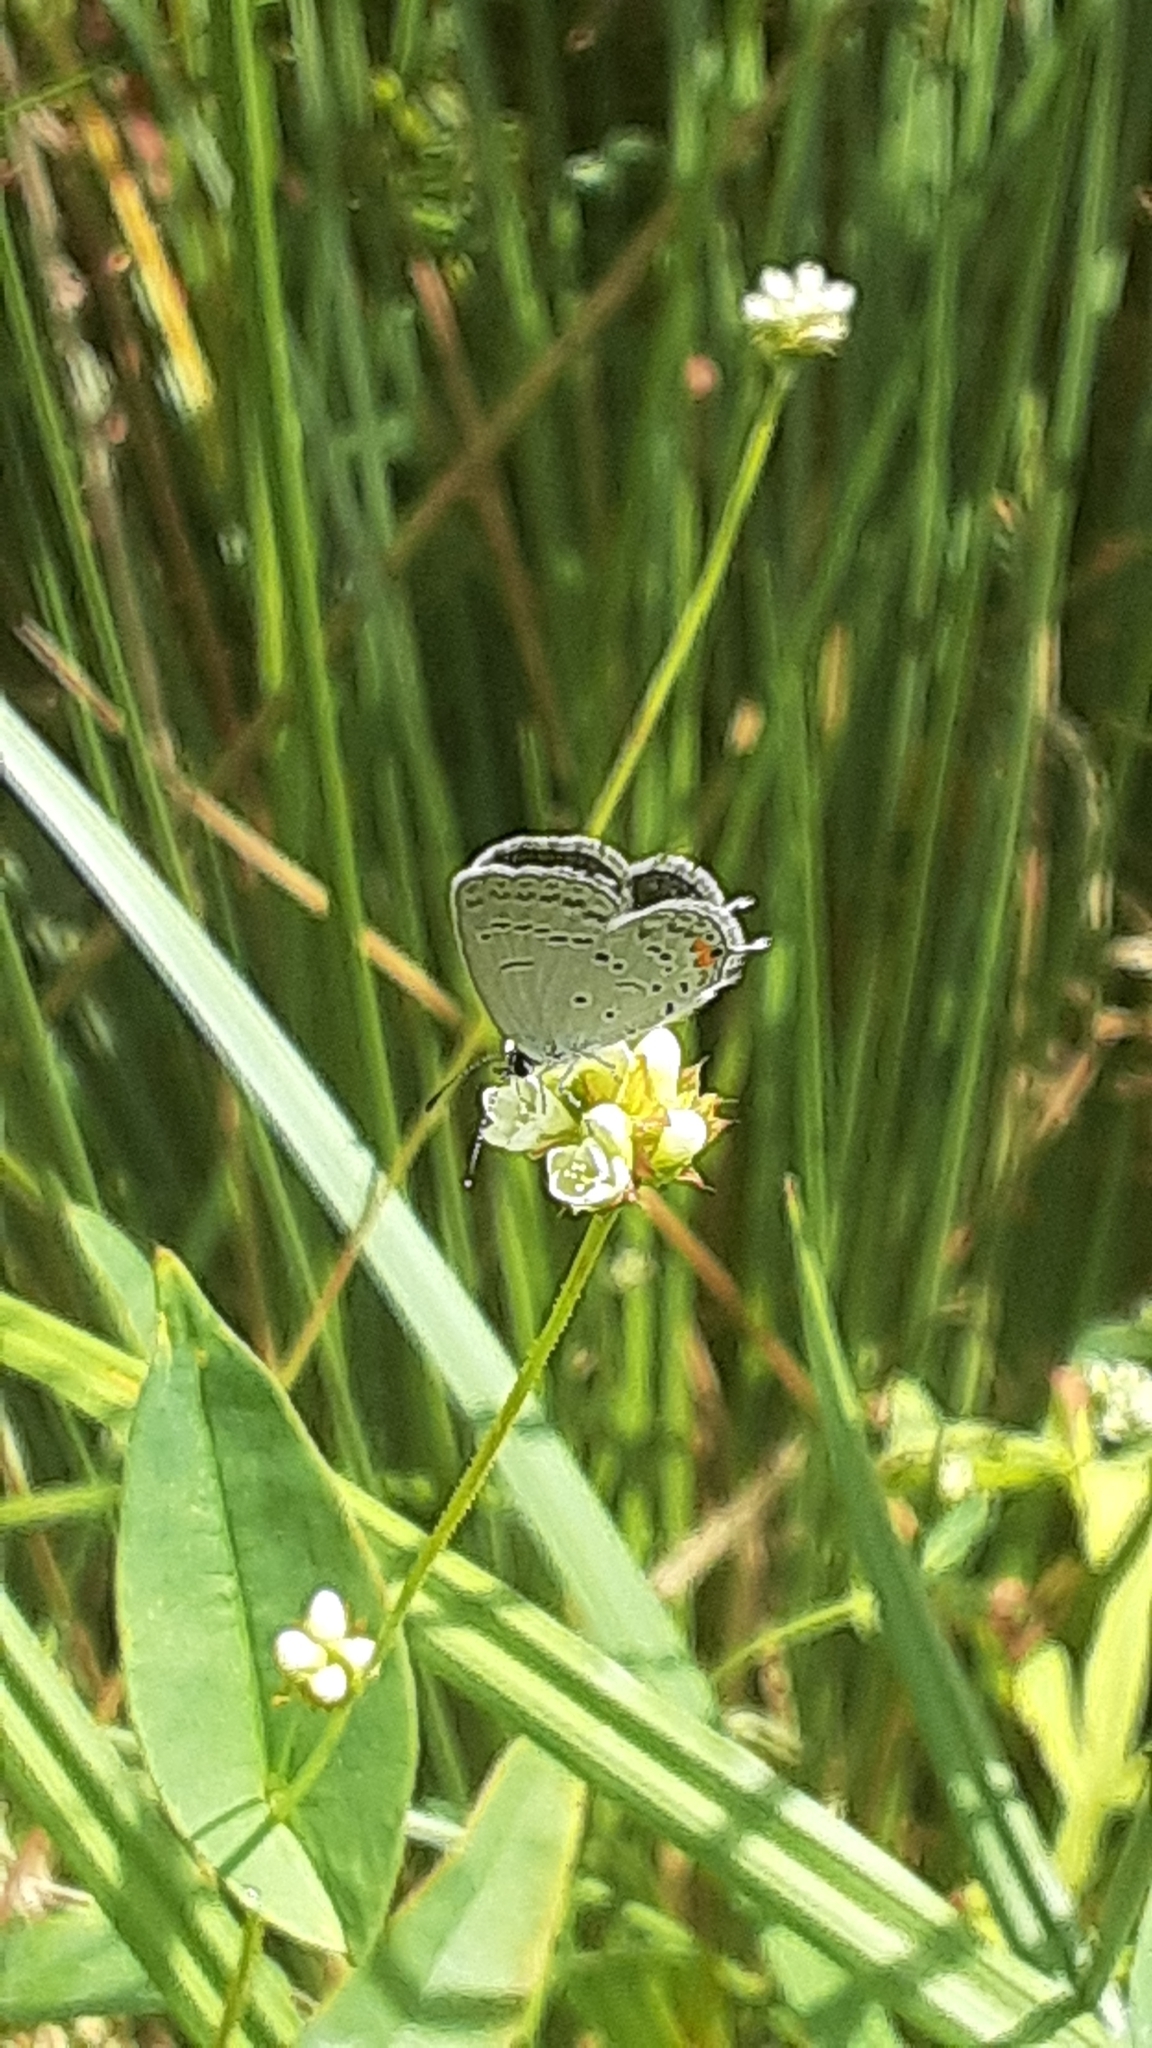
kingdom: Animalia
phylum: Arthropoda
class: Insecta
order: Lepidoptera
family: Lycaenidae
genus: Elkalyce
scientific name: Elkalyce comyntas
